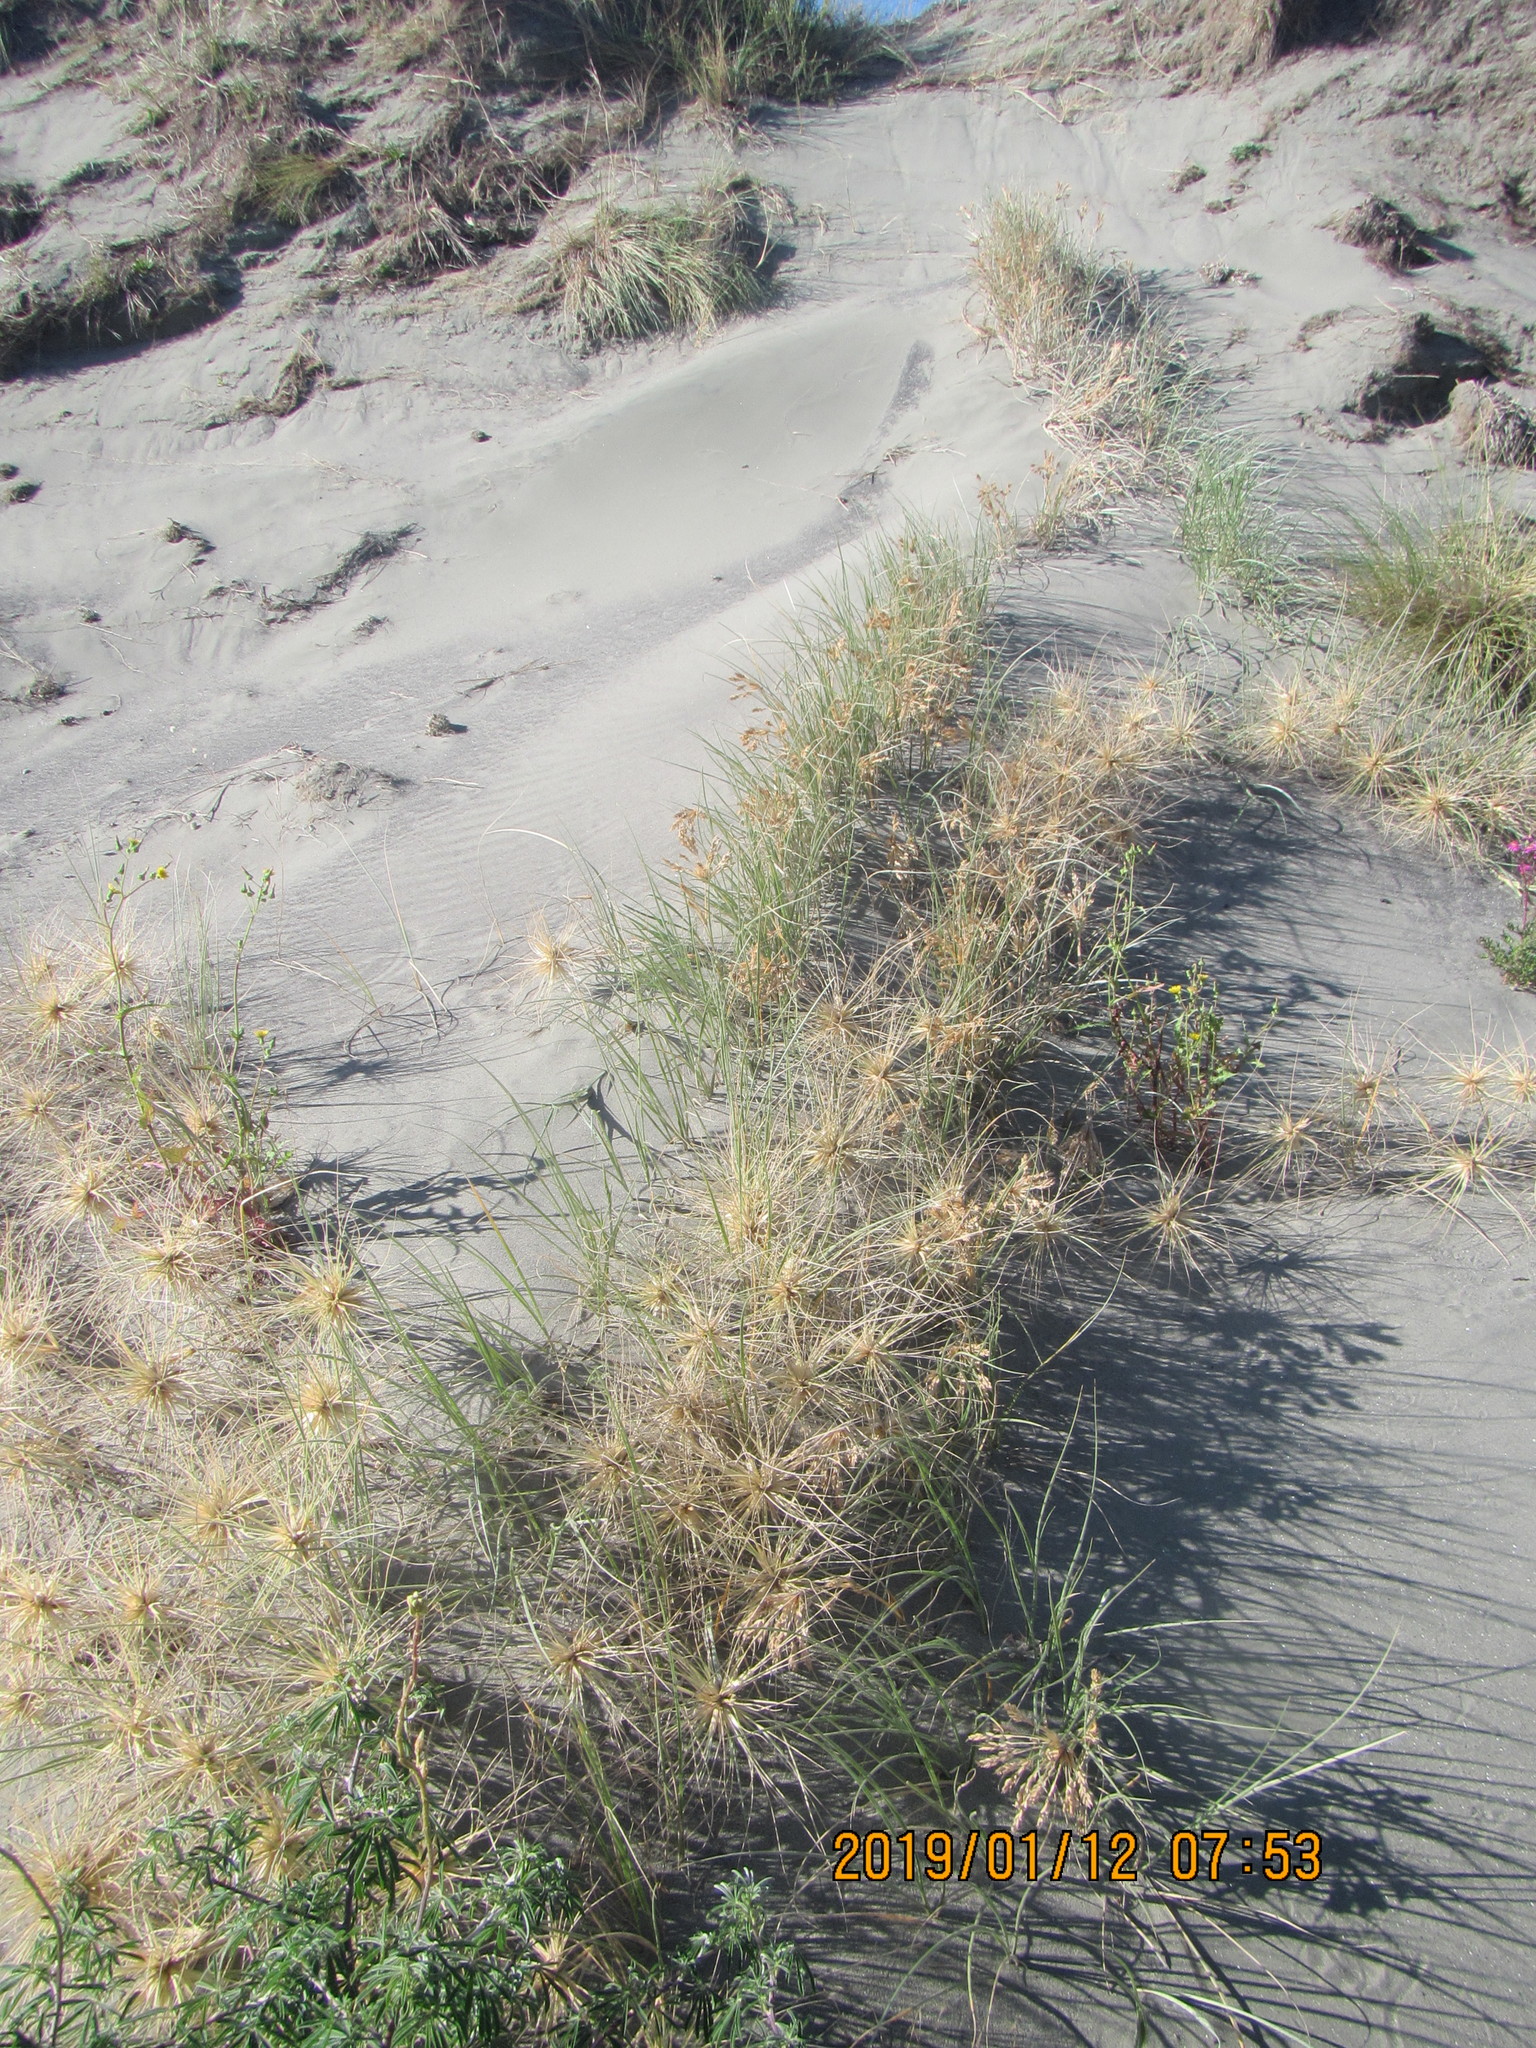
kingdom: Plantae
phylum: Tracheophyta
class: Liliopsida
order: Poales
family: Poaceae
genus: Spinifex
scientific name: Spinifex sericeus
